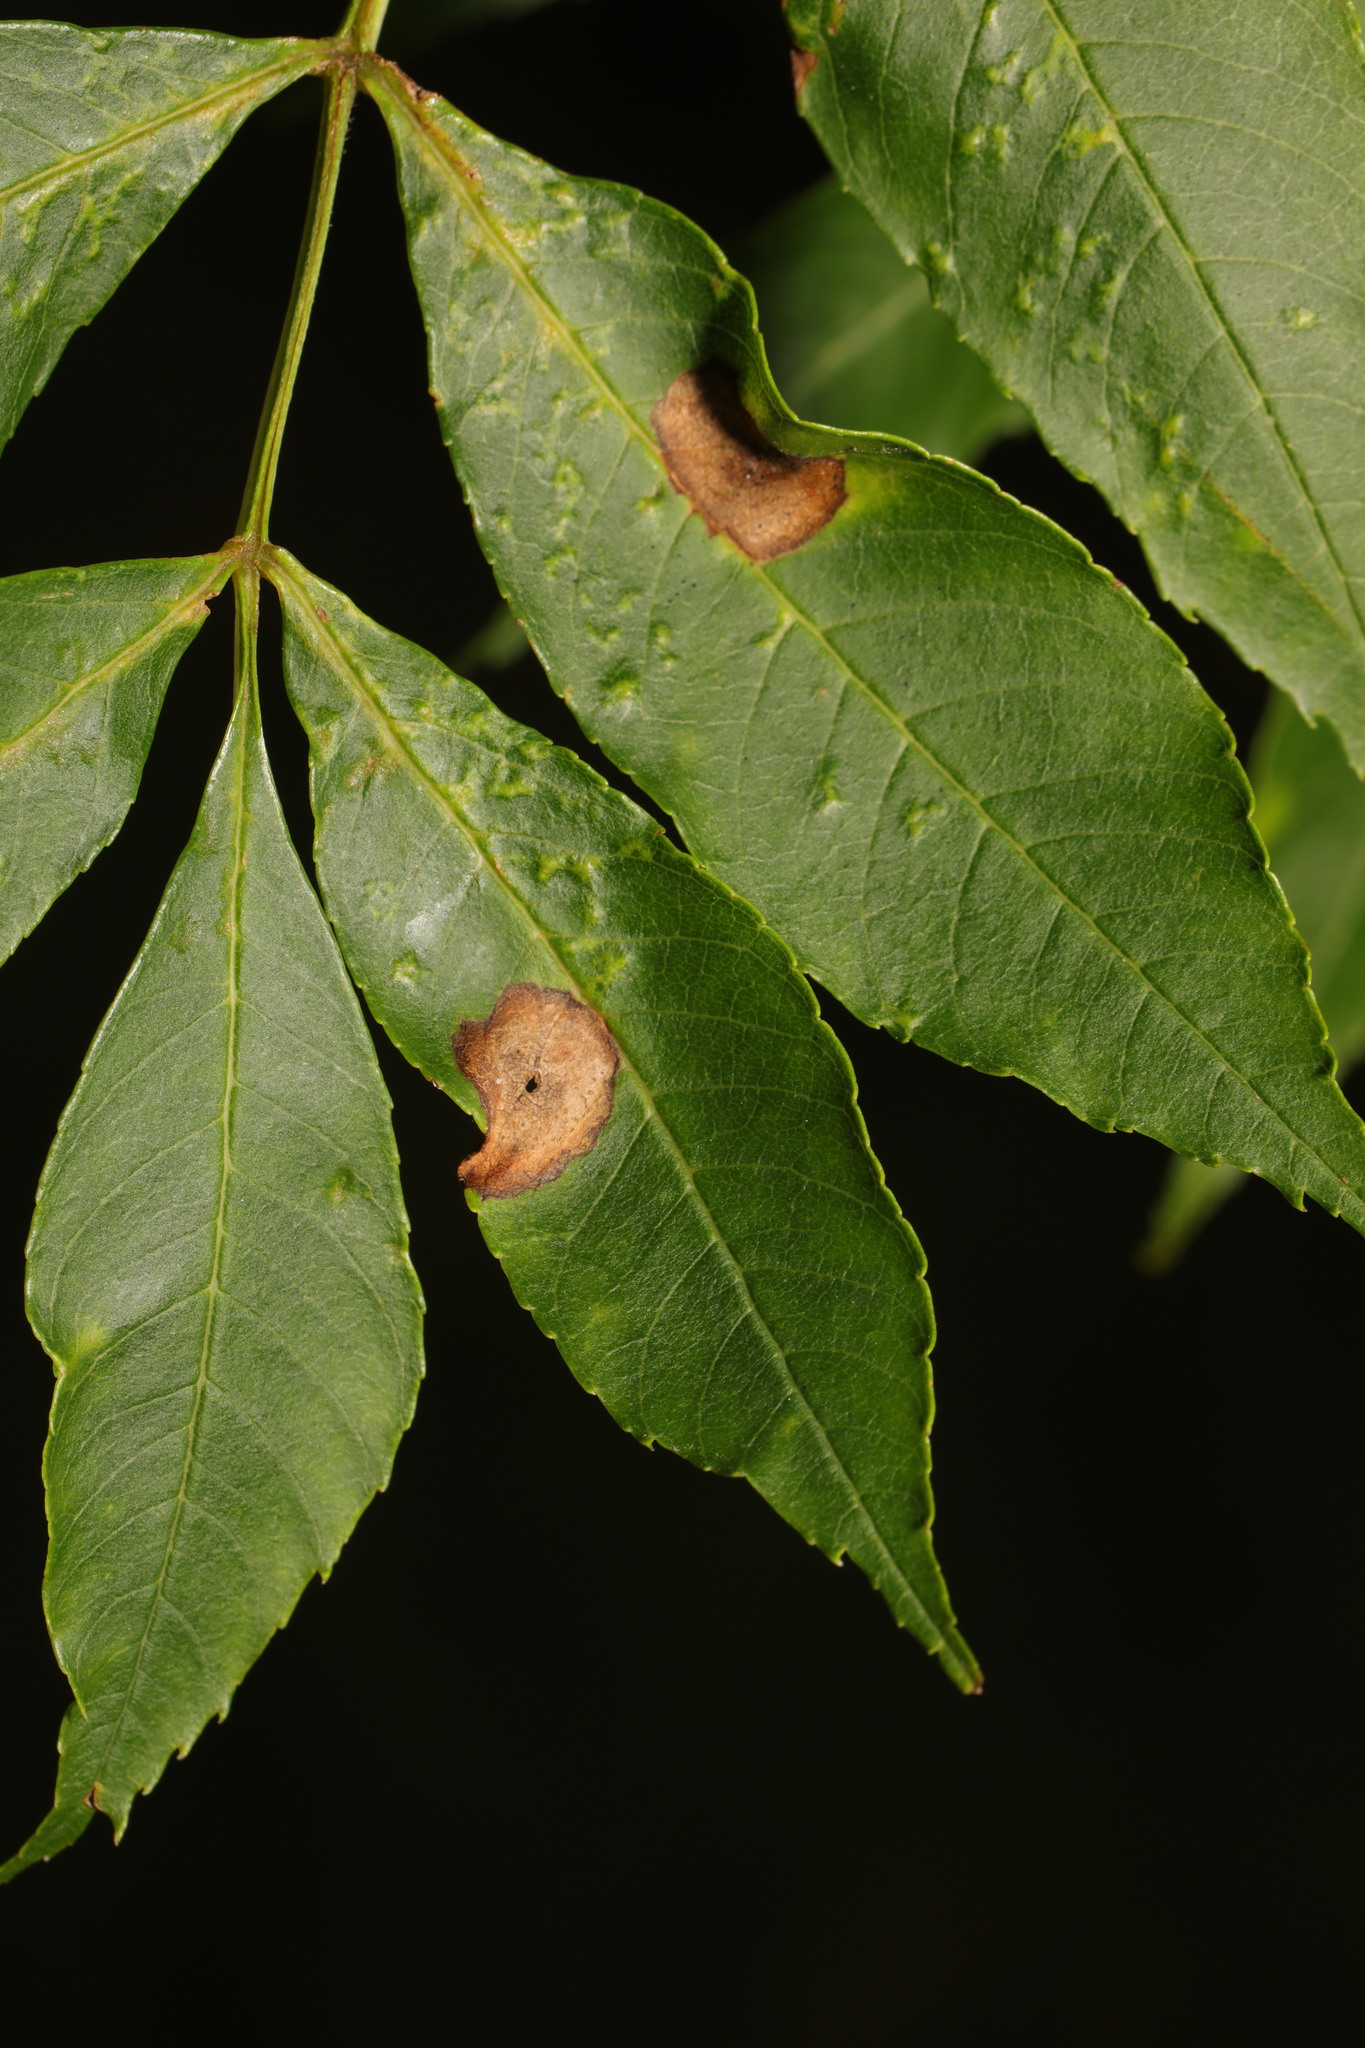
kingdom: Animalia
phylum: Arthropoda
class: Insecta
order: Diptera
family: Cecidomyiidae
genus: Dasineura
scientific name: Dasineura fraxinea
